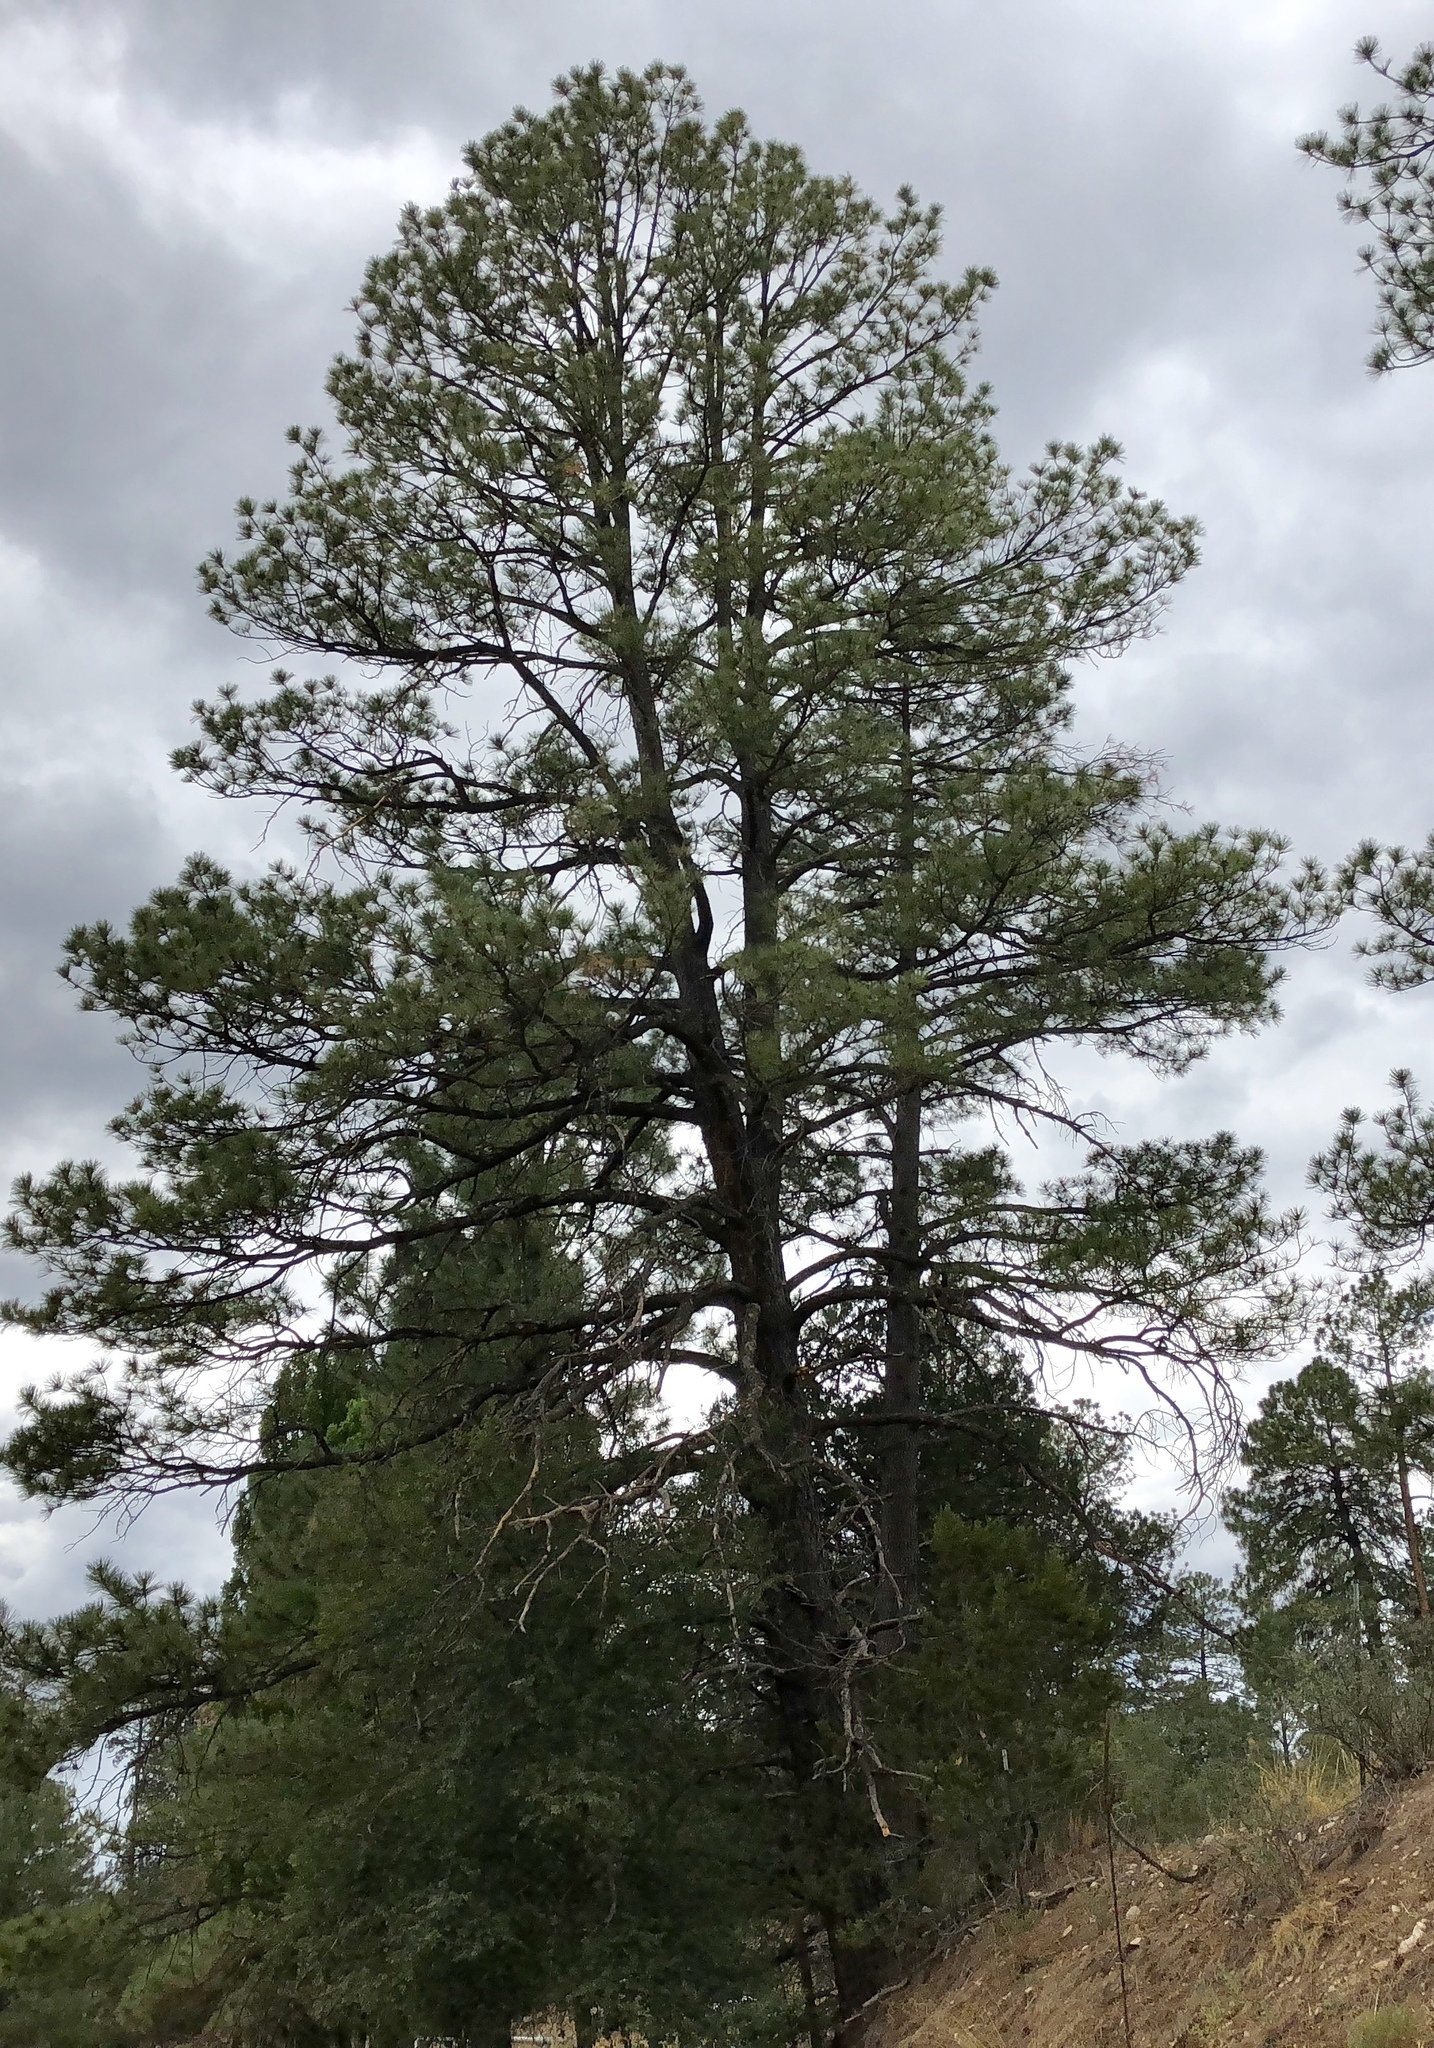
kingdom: Plantae
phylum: Tracheophyta
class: Pinopsida
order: Pinales
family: Pinaceae
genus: Pinus
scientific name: Pinus ponderosa
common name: Western yellow-pine
